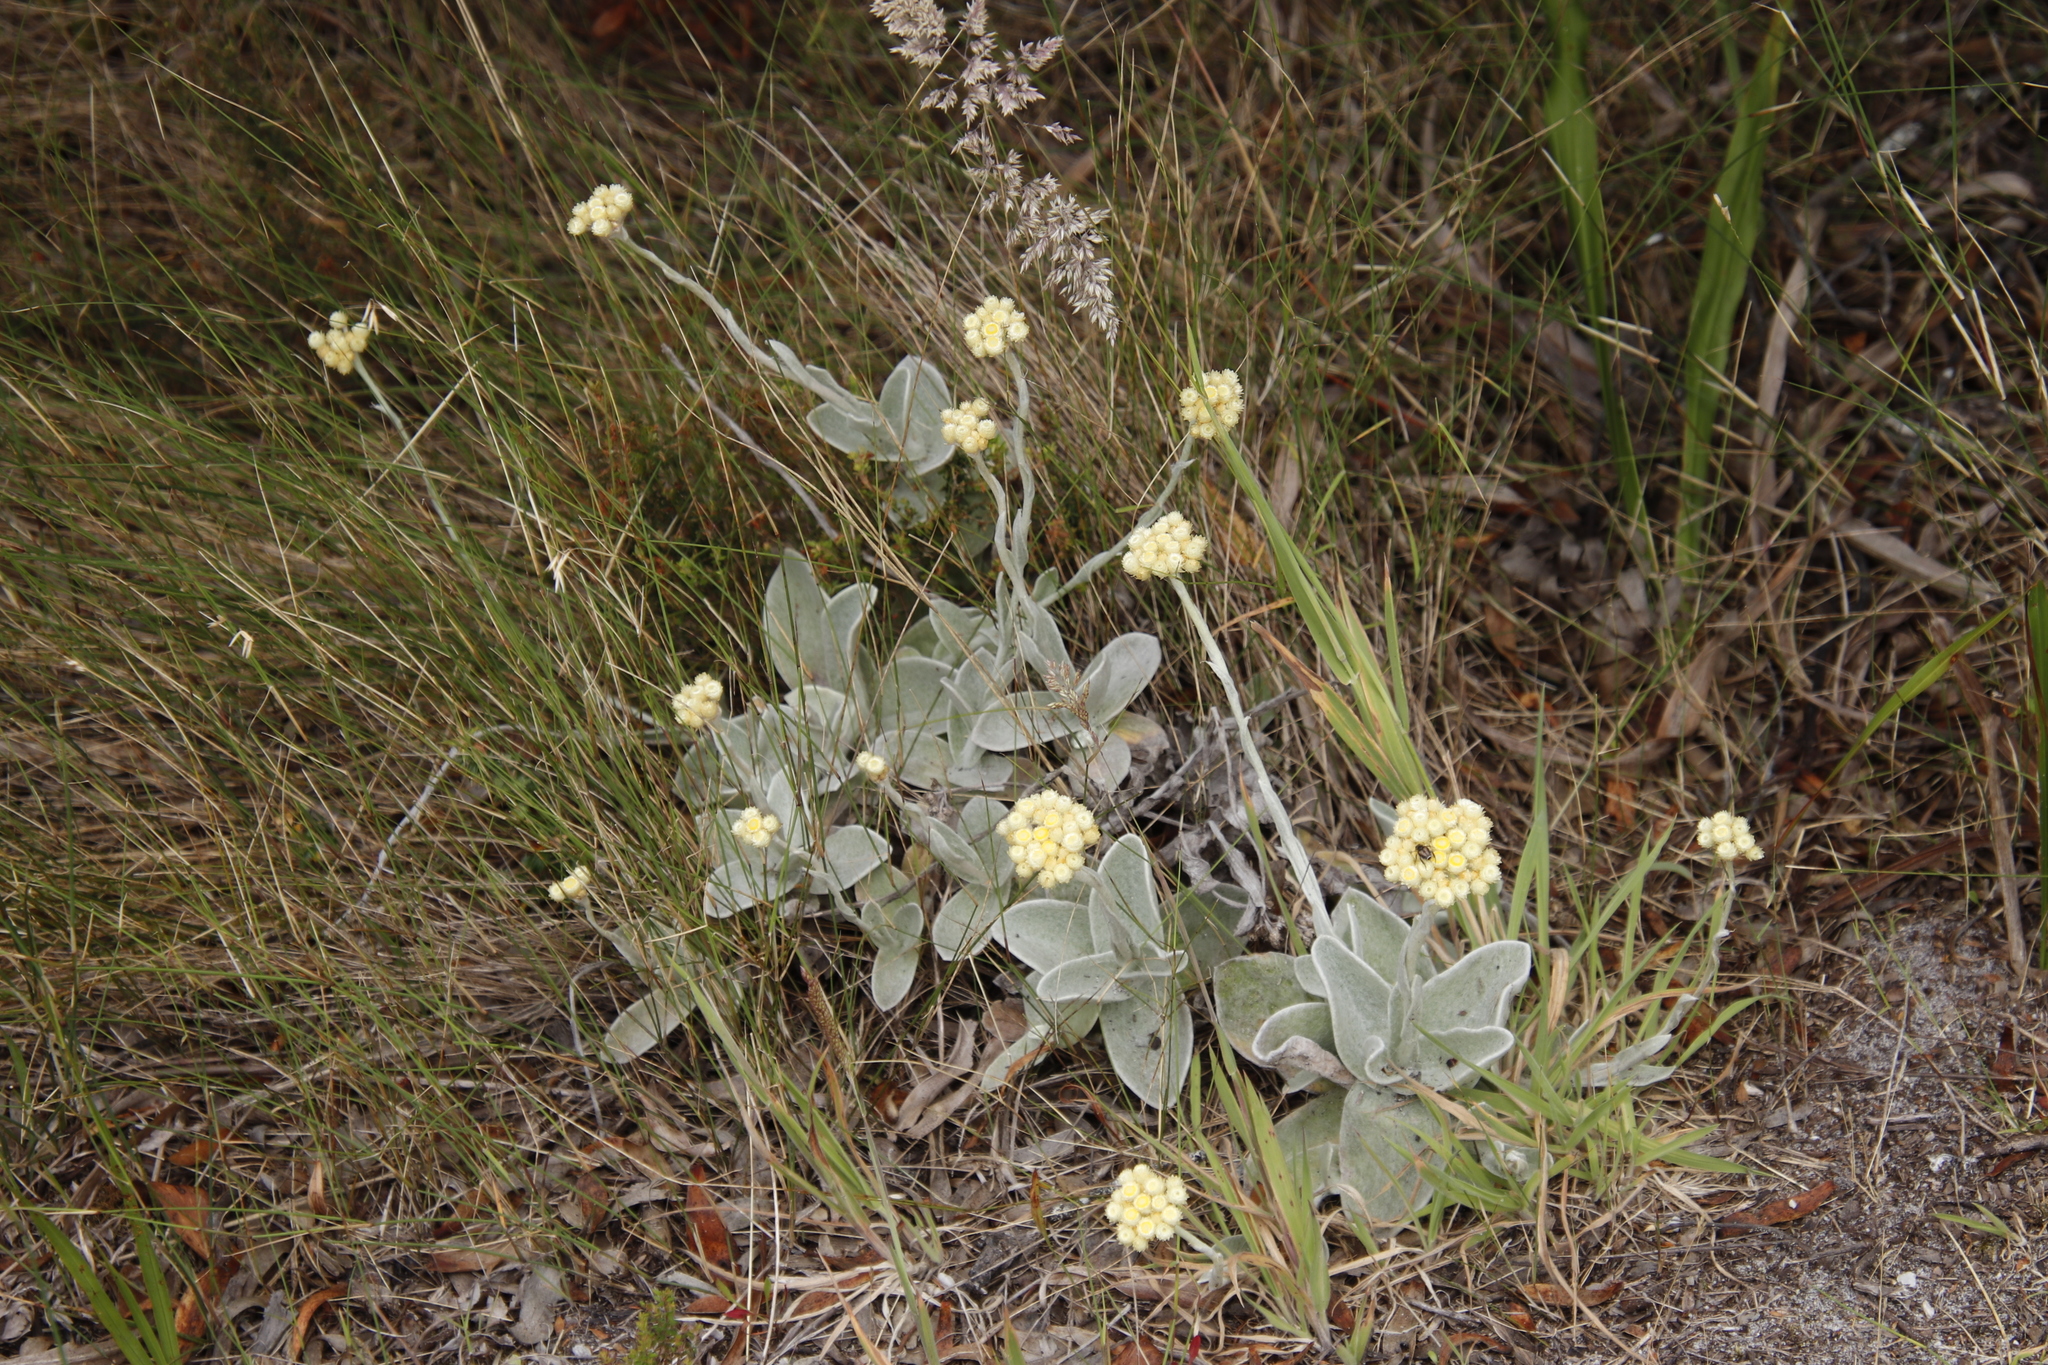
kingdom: Plantae
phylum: Tracheophyta
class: Magnoliopsida
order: Asterales
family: Asteraceae
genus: Helichrysum
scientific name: Helichrysum grandiflorum
